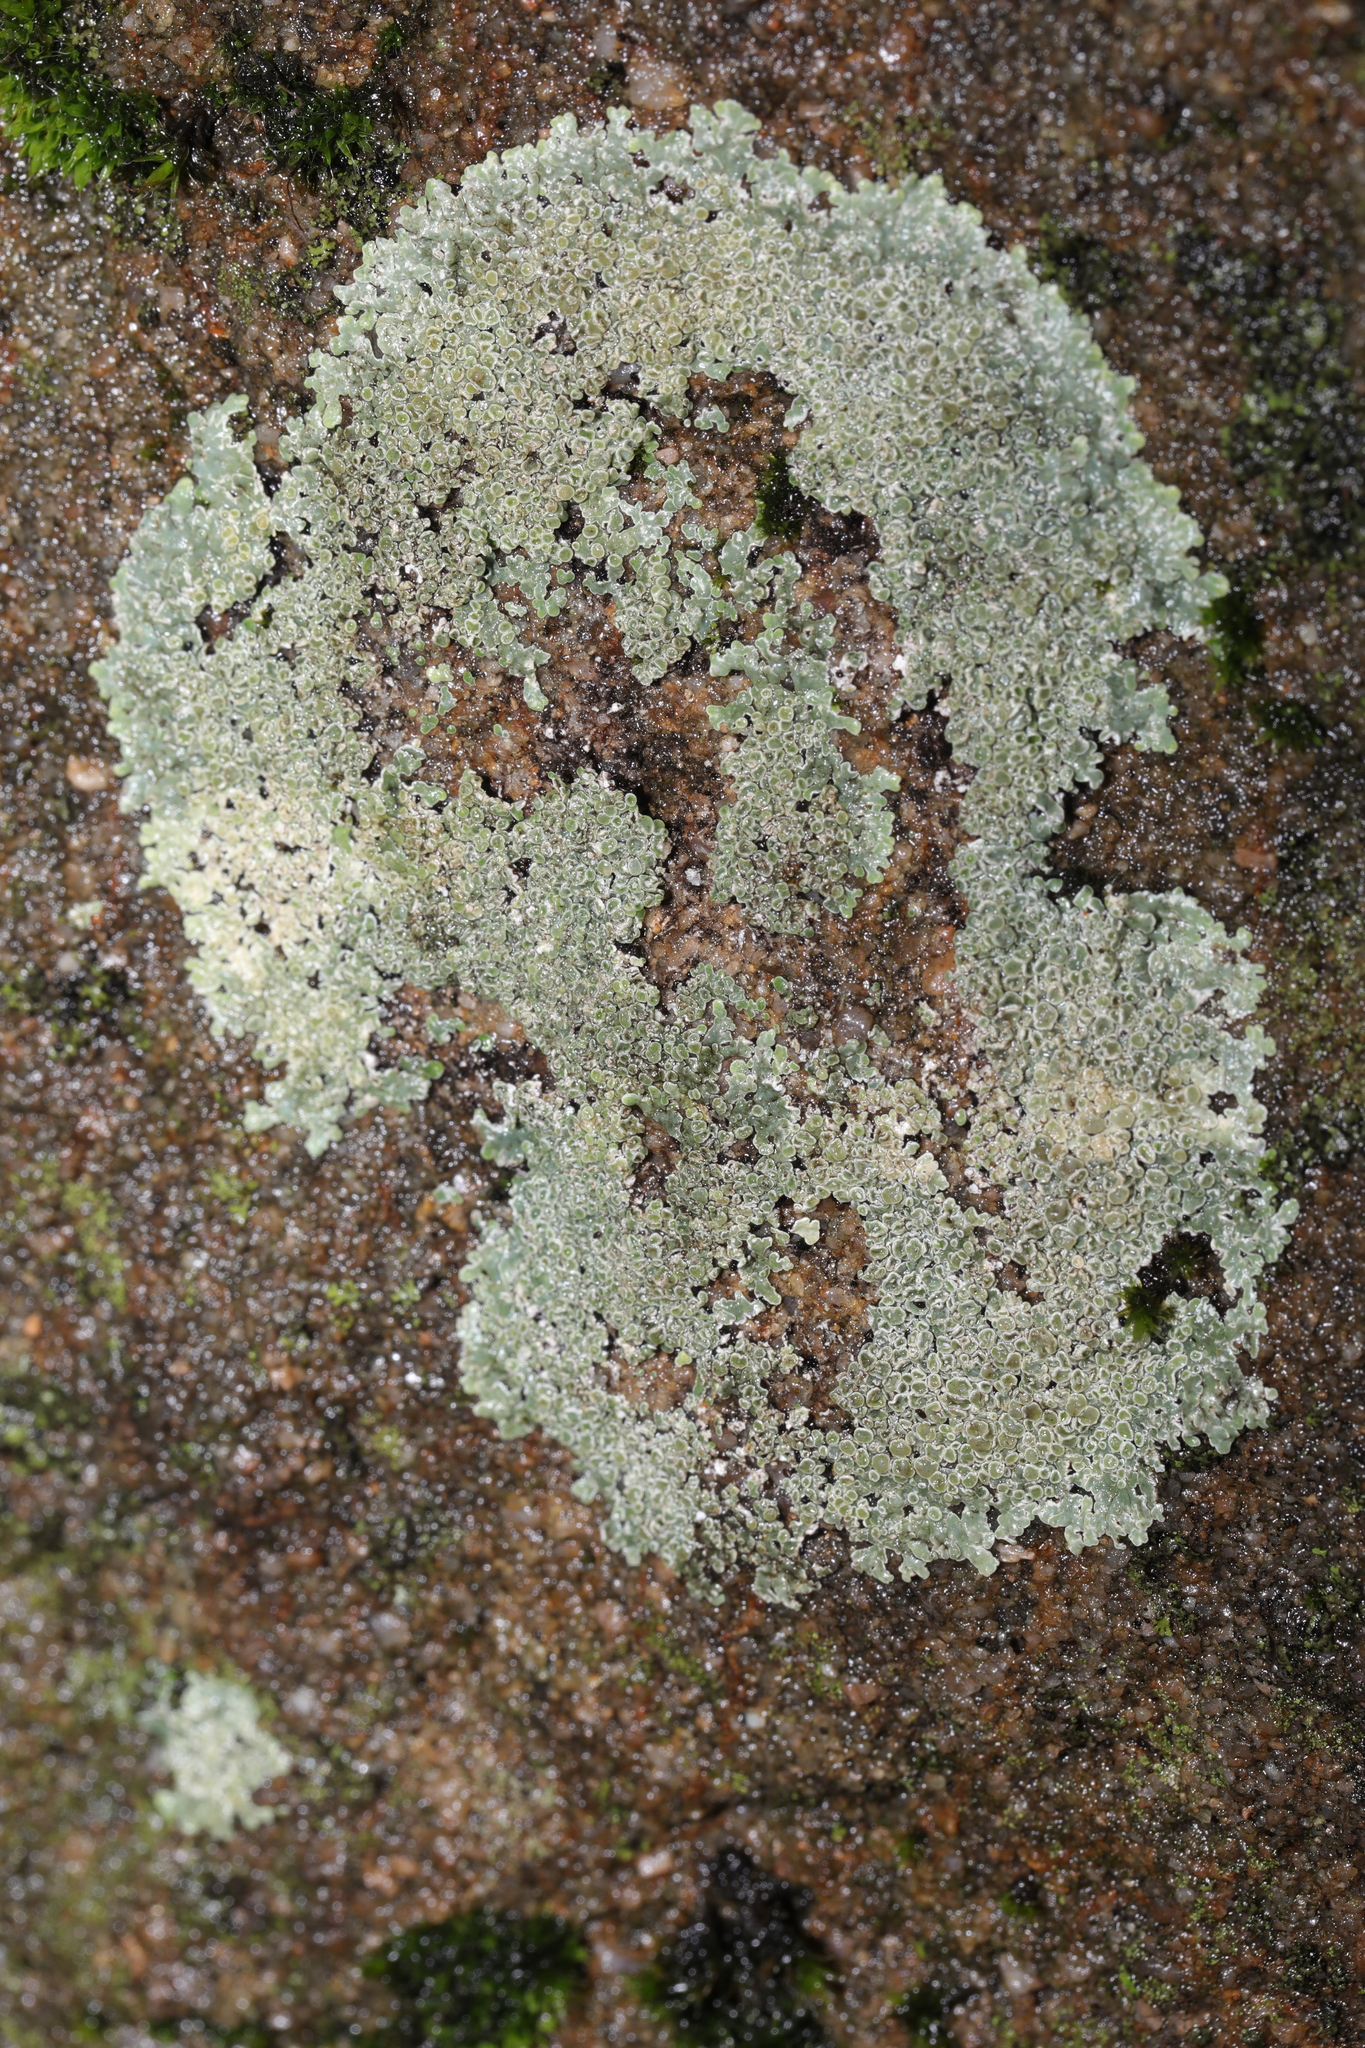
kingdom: Fungi
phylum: Ascomycota
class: Lecanoromycetes
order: Lecanorales
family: Lecanoraceae
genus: Protoparmeliopsis
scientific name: Protoparmeliopsis muralis
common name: Stonewall rim lichen
